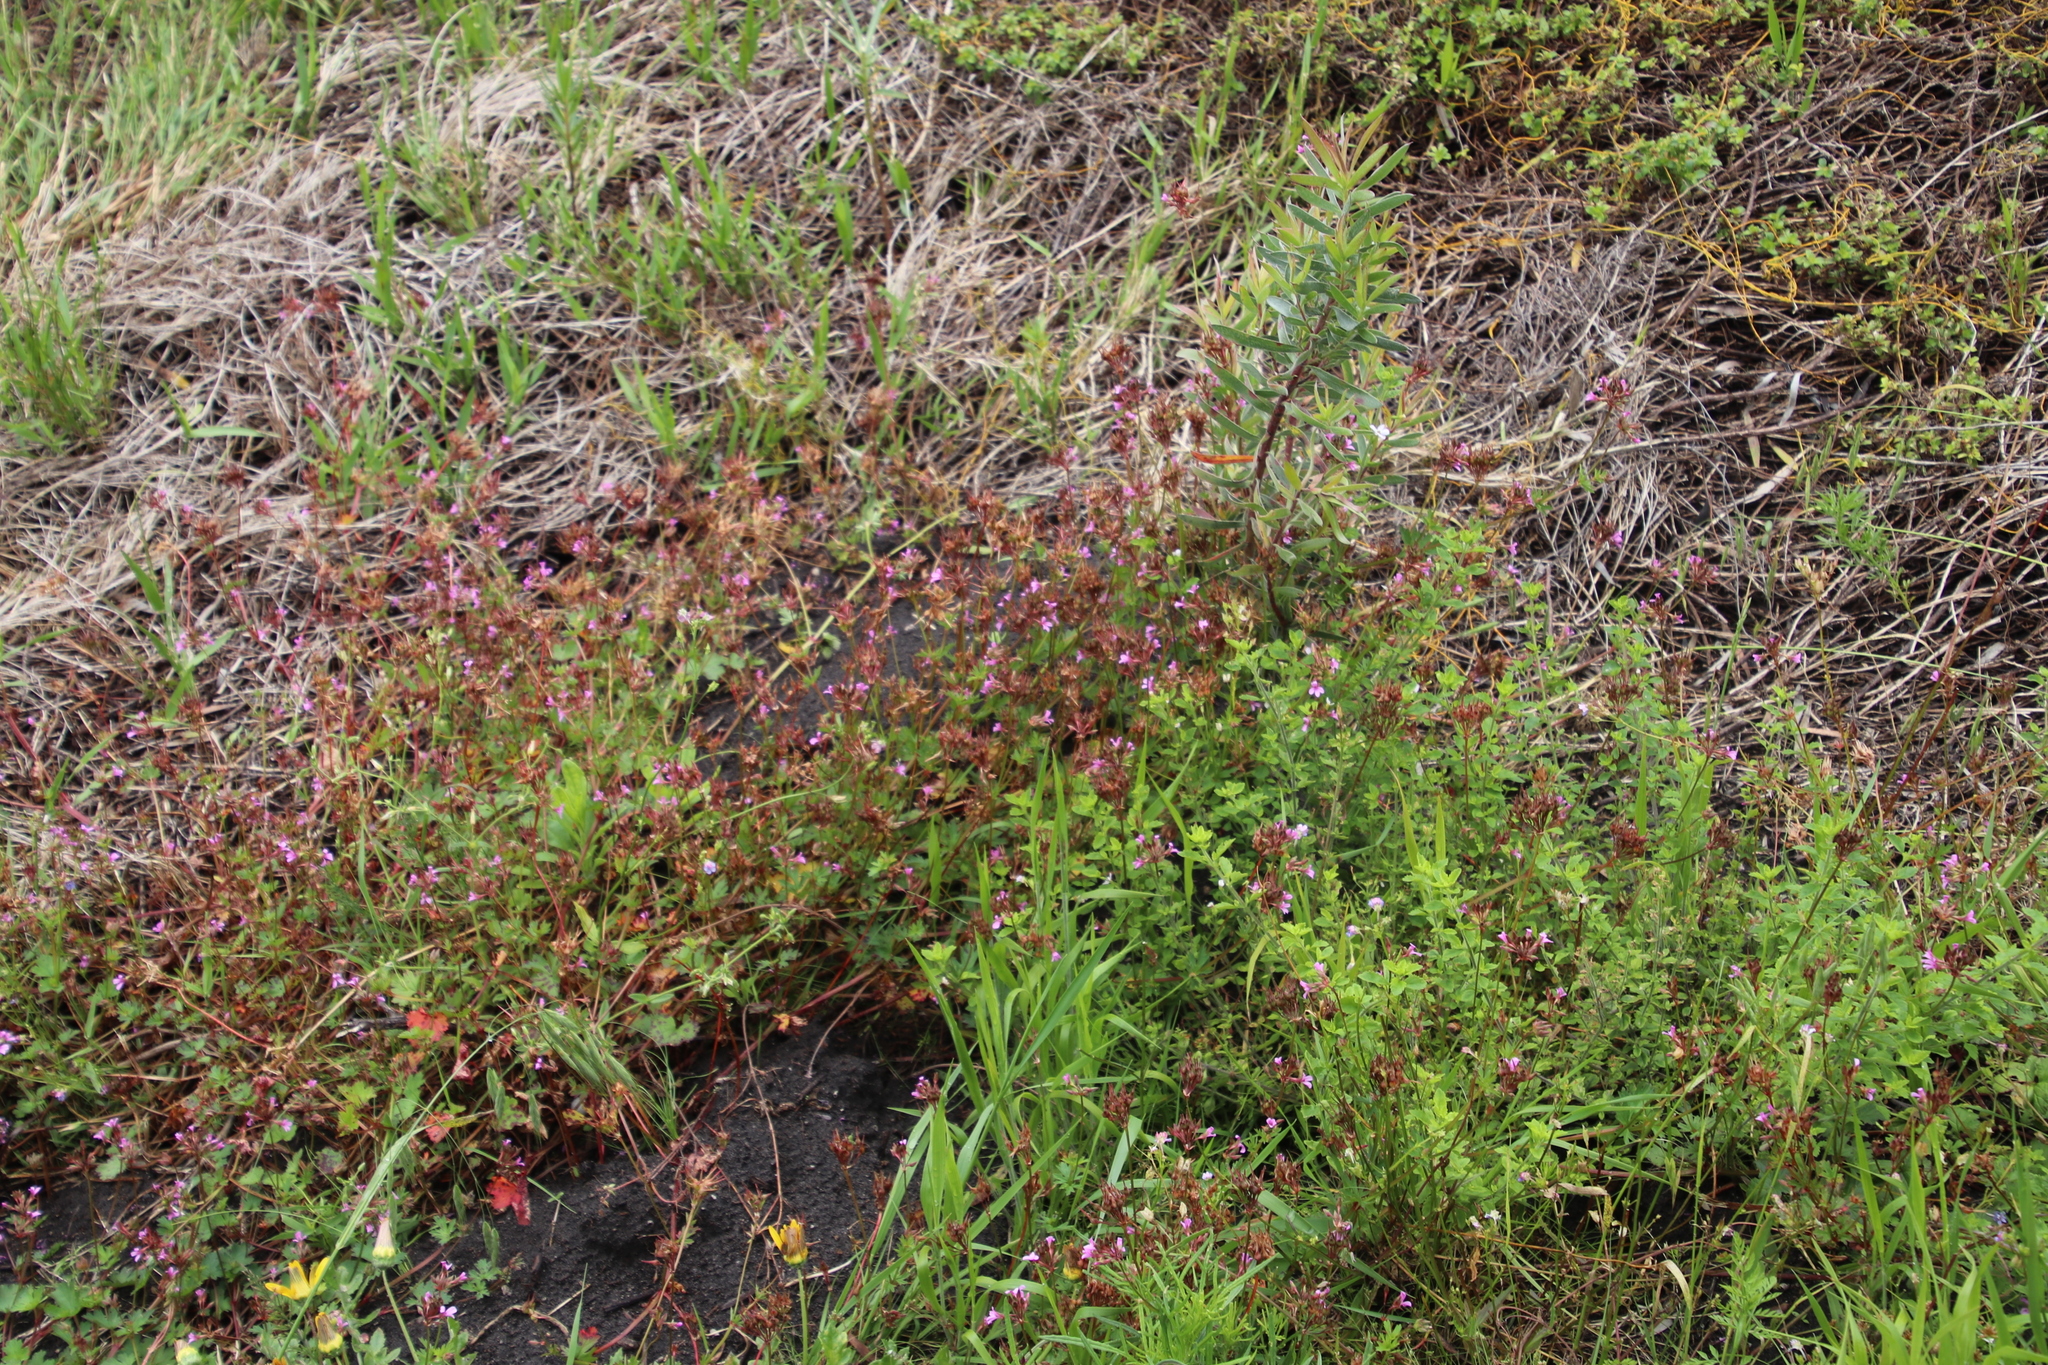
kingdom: Plantae
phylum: Tracheophyta
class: Magnoliopsida
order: Geraniales
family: Geraniaceae
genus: Pelargonium
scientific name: Pelargonium grossularioides
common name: Gooseberry geranium
